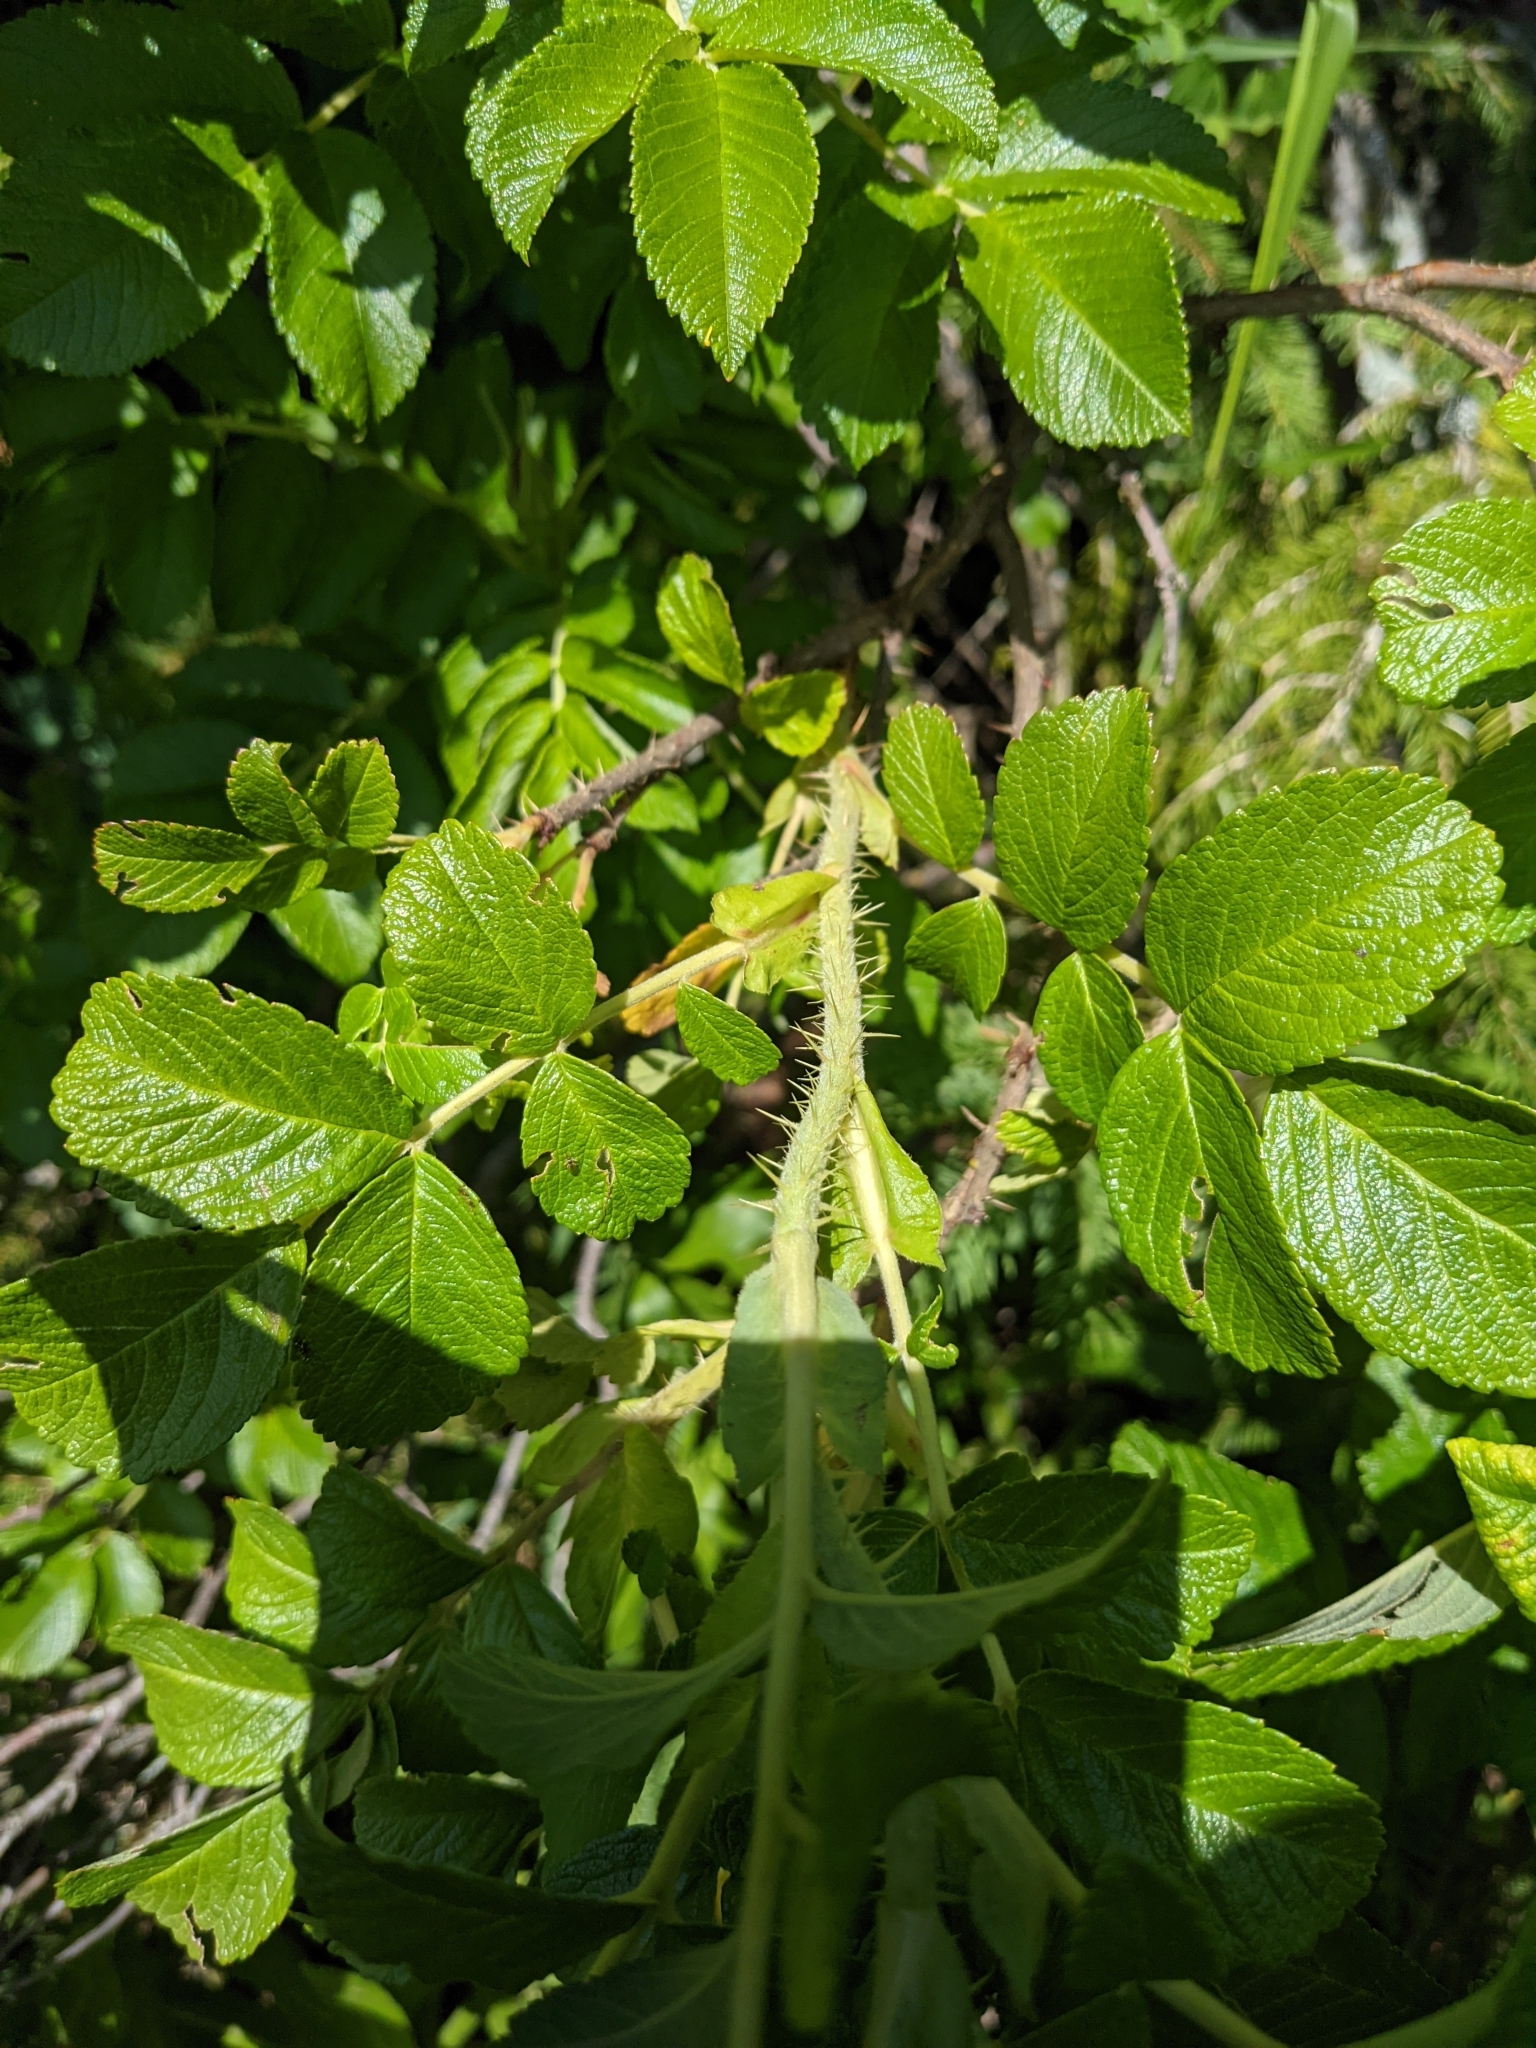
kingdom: Plantae
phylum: Tracheophyta
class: Magnoliopsida
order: Rosales
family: Rosaceae
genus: Rosa
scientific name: Rosa rugosa
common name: Japanese rose
